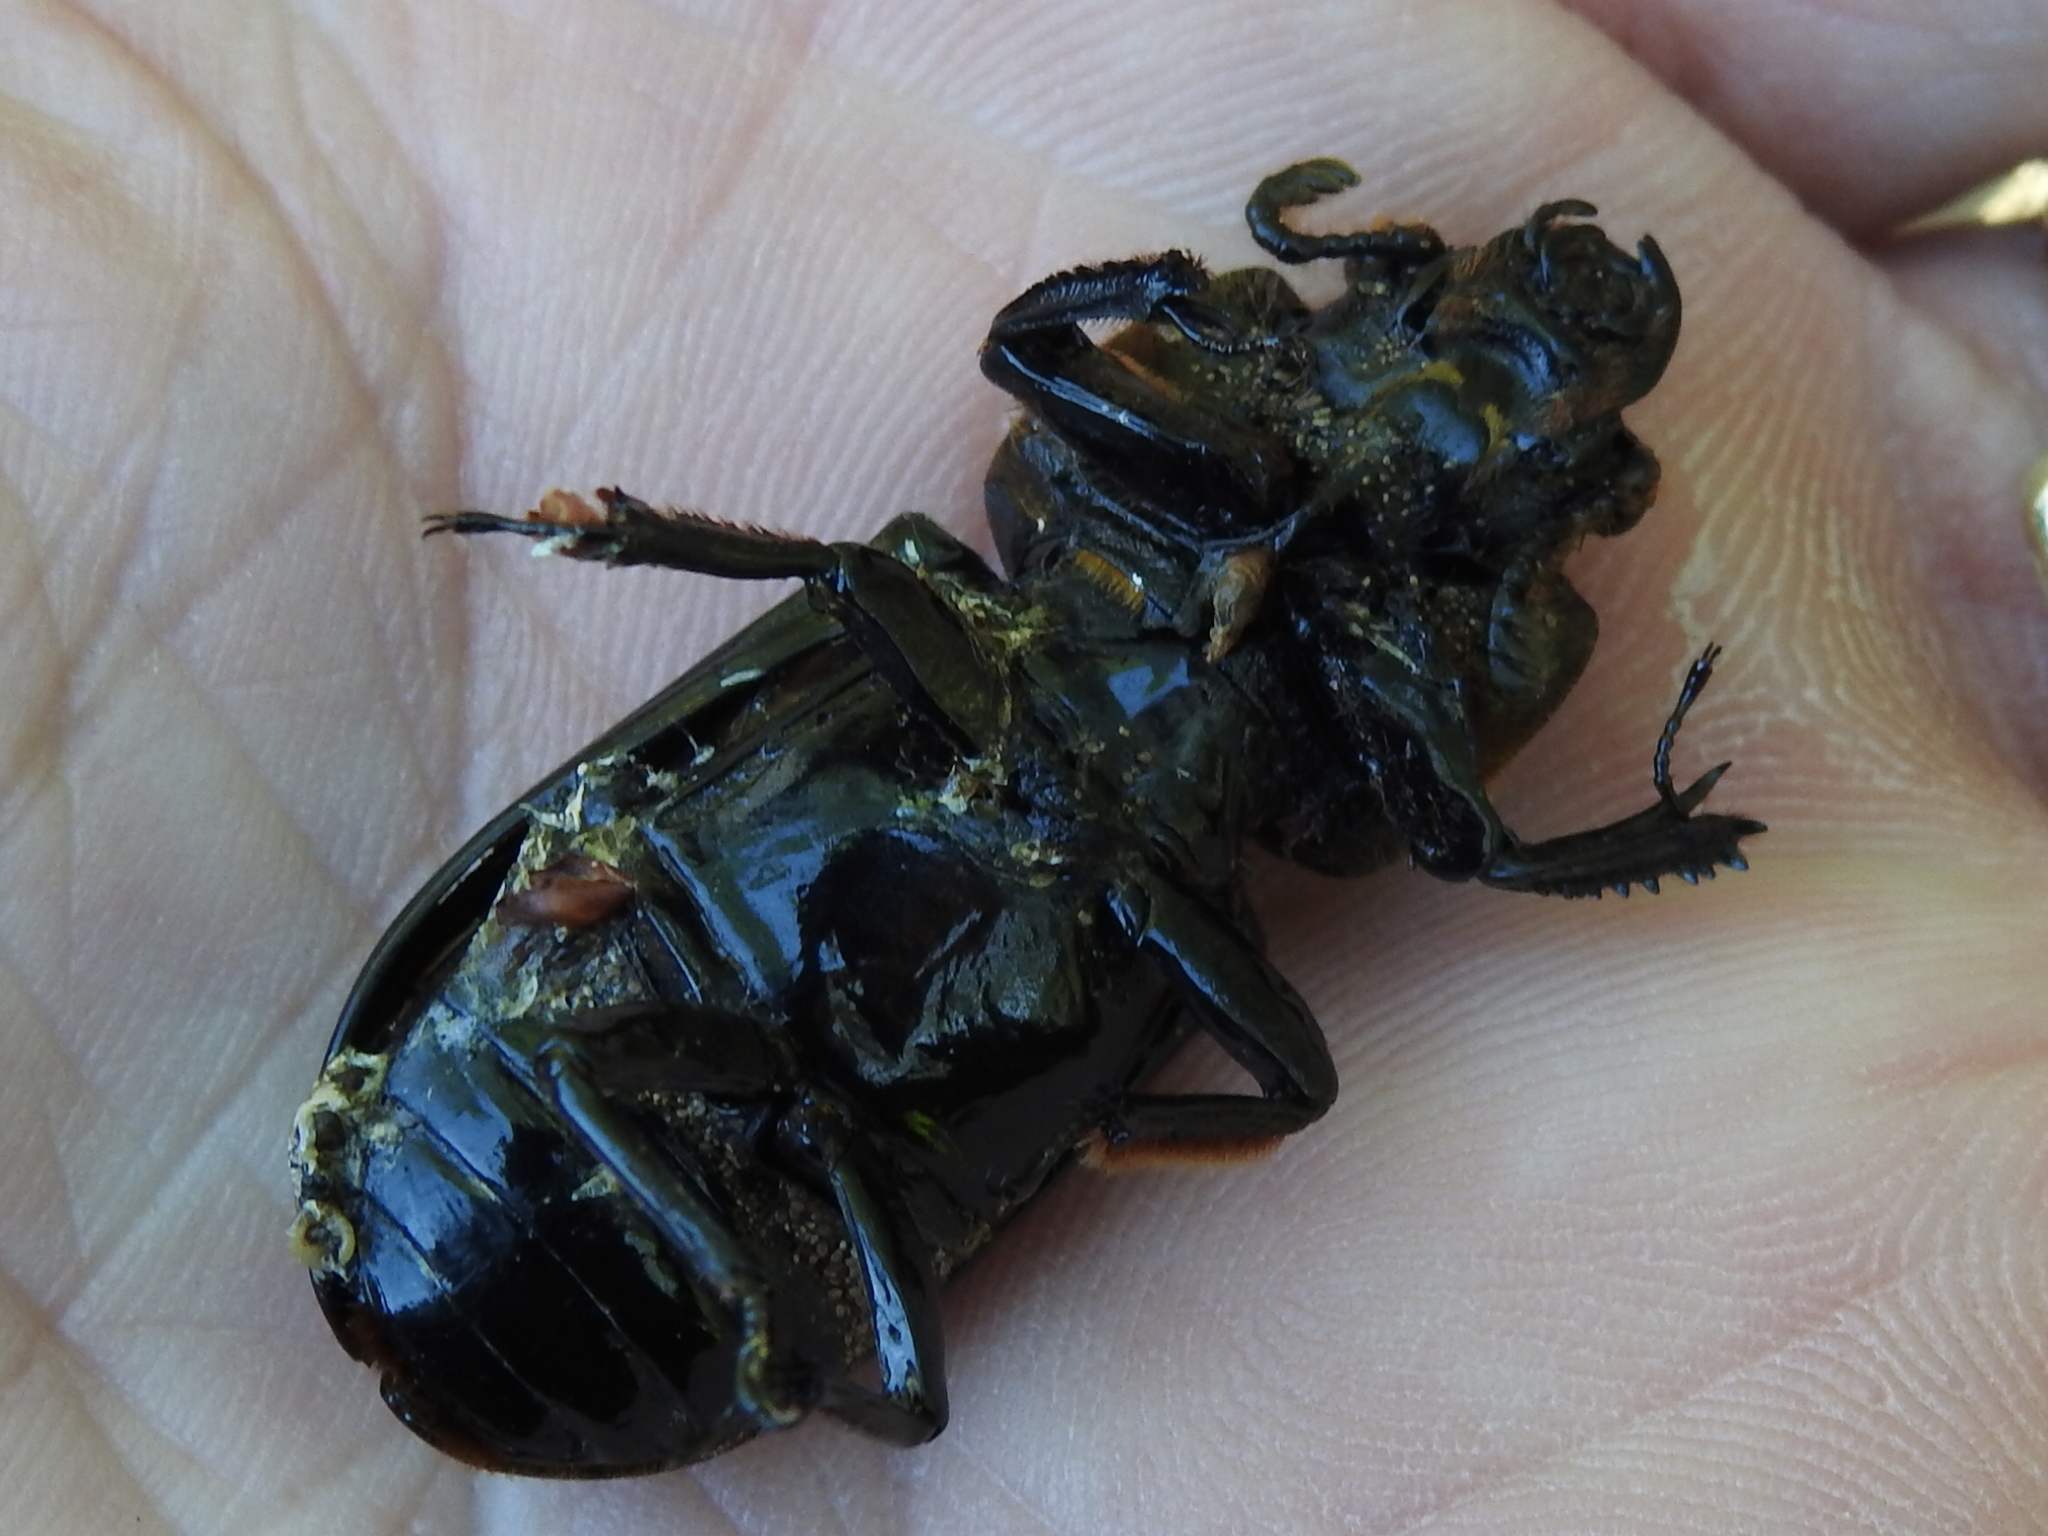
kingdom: Animalia
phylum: Arthropoda
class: Insecta
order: Coleoptera
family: Passalidae
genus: Odontotaenius
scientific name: Odontotaenius disjunctus
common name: Patent leather beetle
